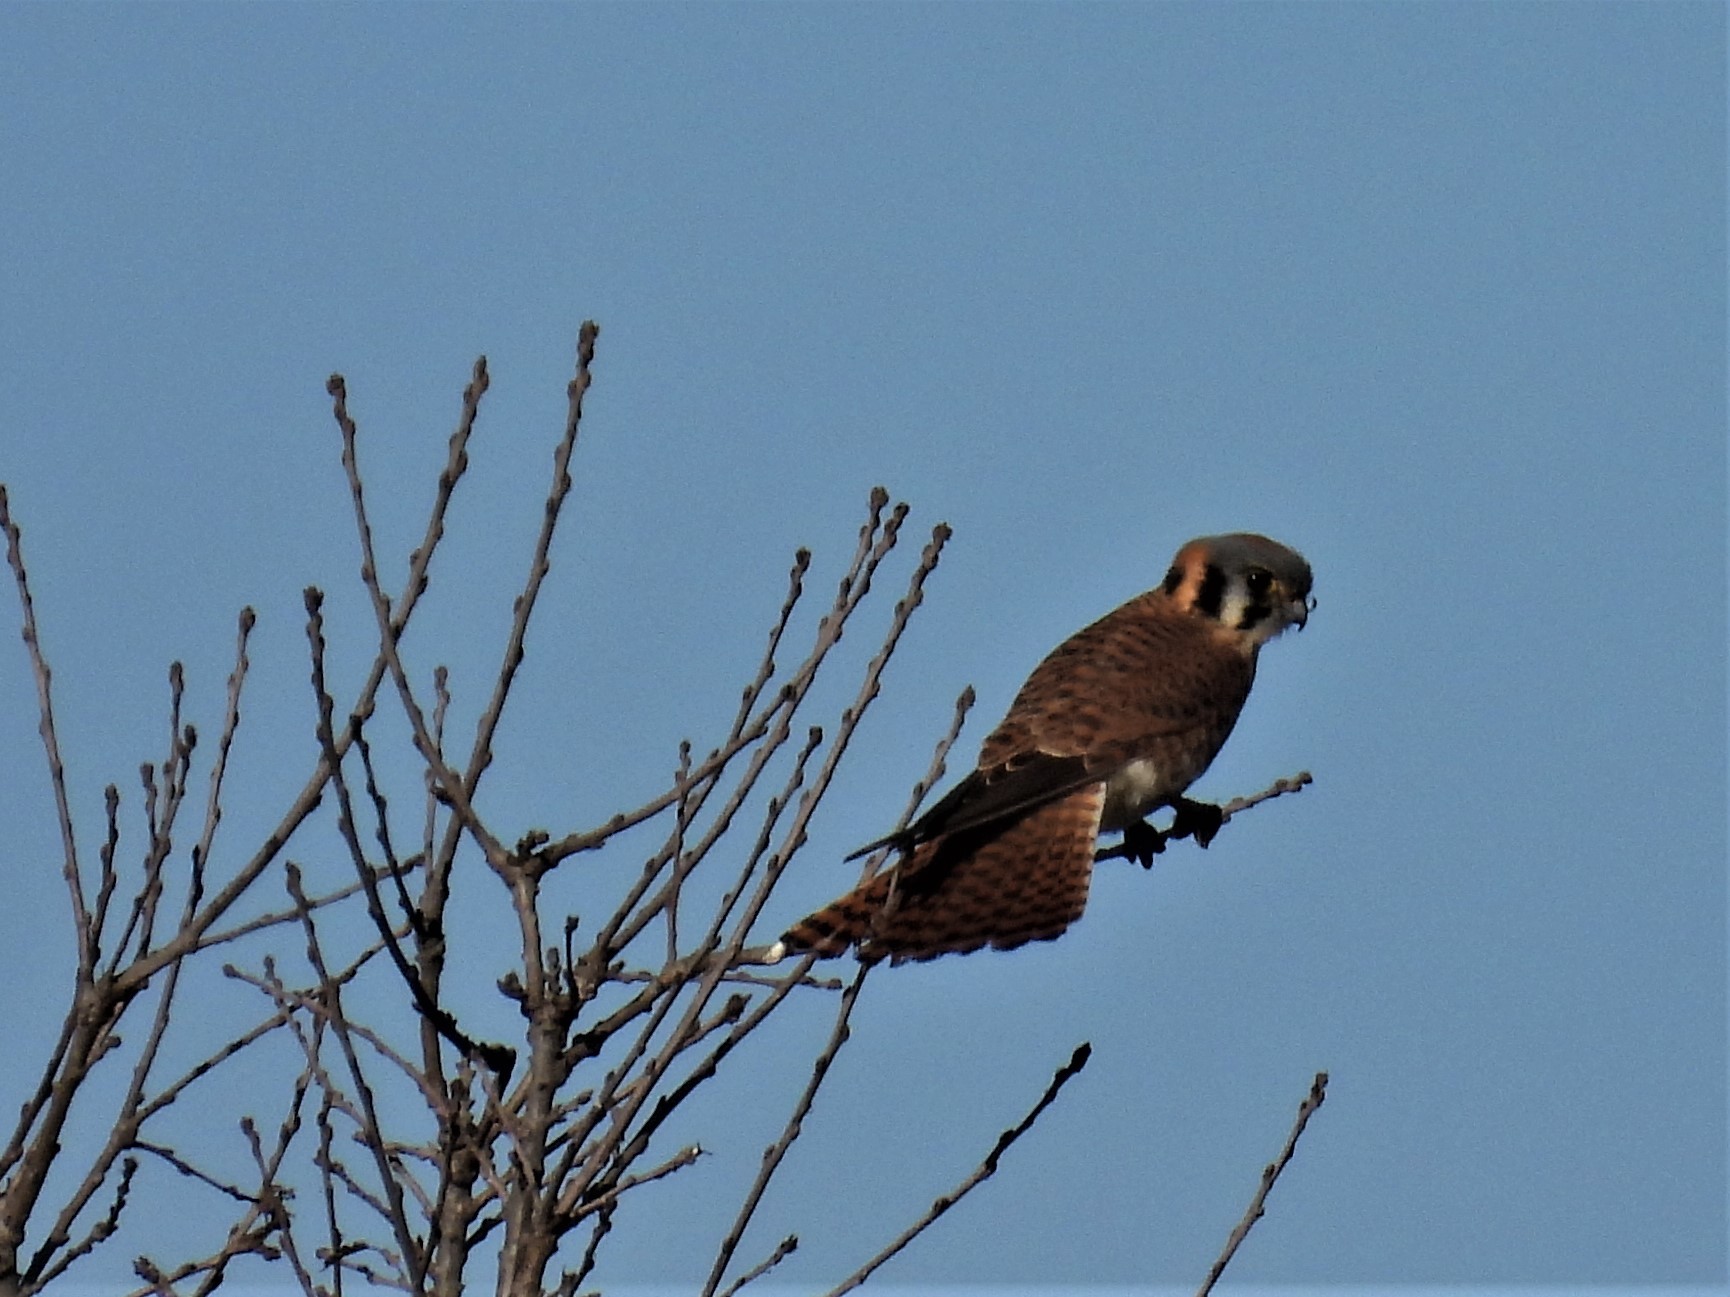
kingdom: Animalia
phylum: Chordata
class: Aves
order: Falconiformes
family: Falconidae
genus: Falco
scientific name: Falco sparverius
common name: American kestrel
